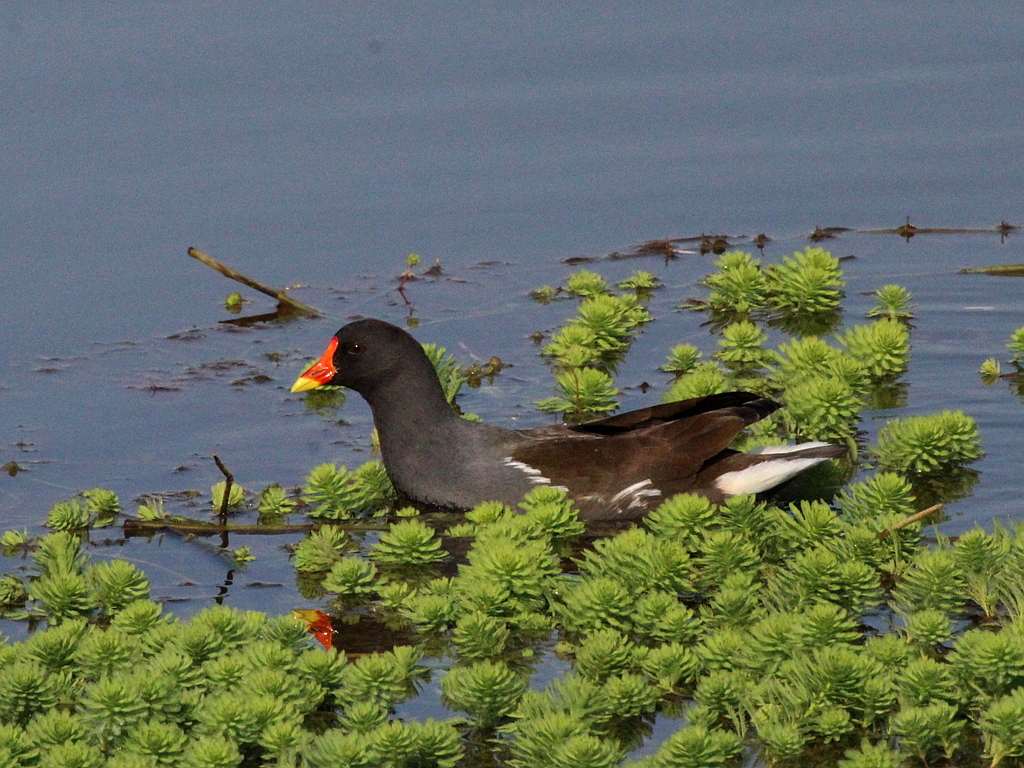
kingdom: Animalia
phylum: Chordata
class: Aves
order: Gruiformes
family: Rallidae
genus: Gallinula
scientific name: Gallinula chloropus
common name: Common moorhen
